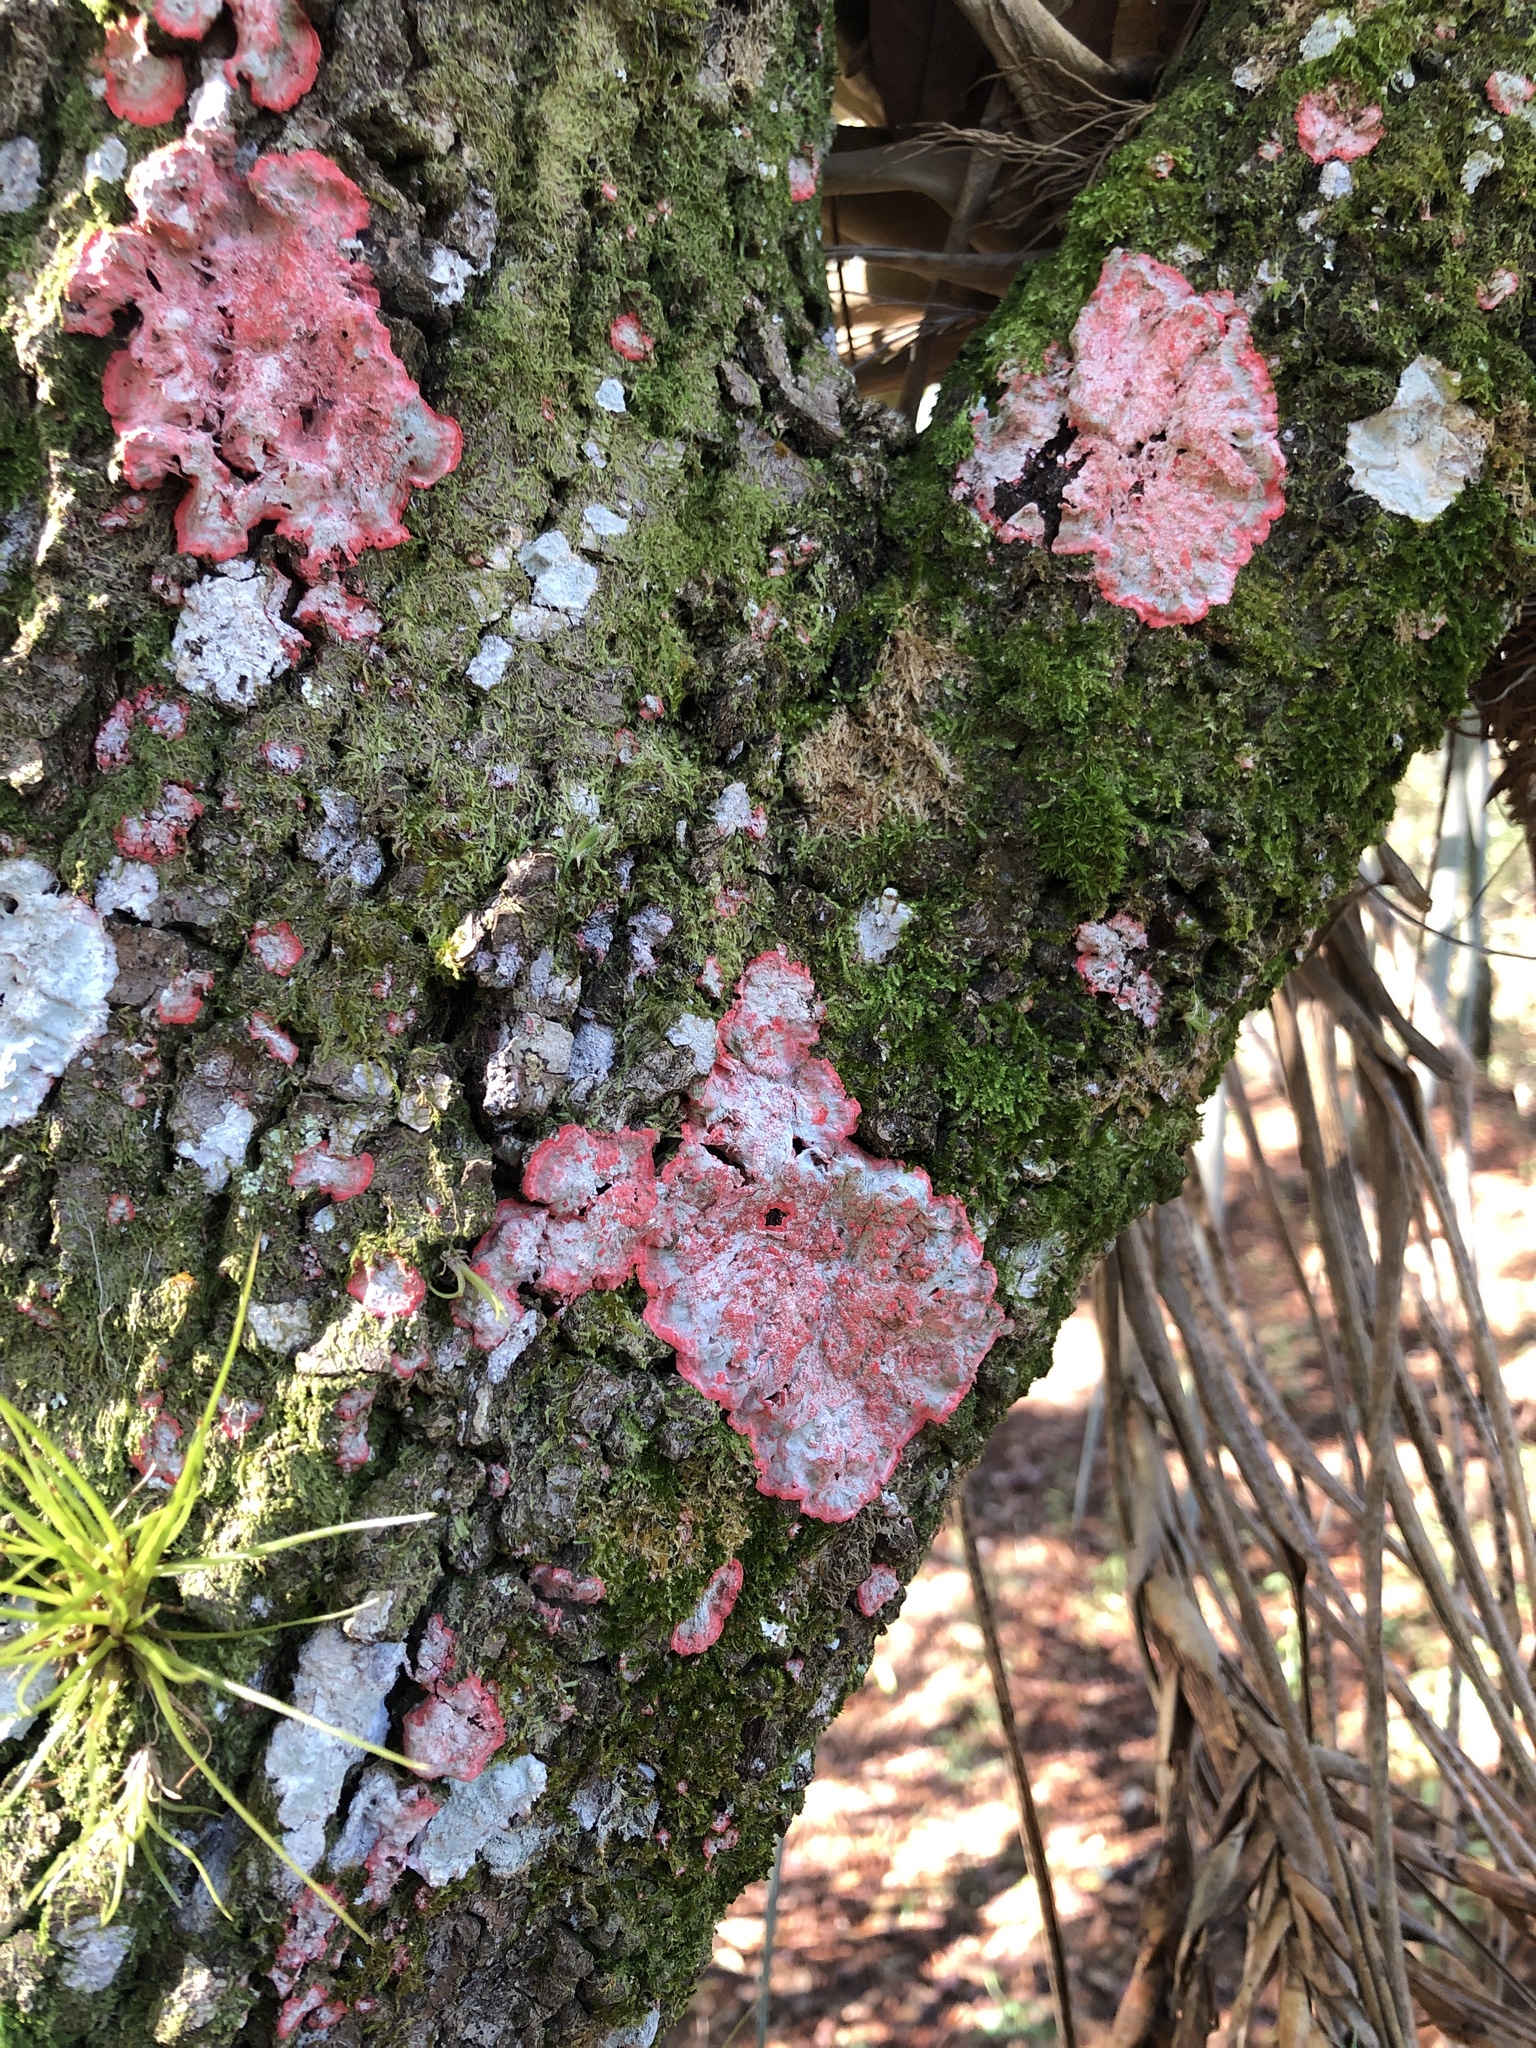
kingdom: Fungi
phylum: Ascomycota
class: Arthoniomycetes
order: Arthoniales
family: Arthoniaceae
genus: Herpothallon
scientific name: Herpothallon rubrocinctum
